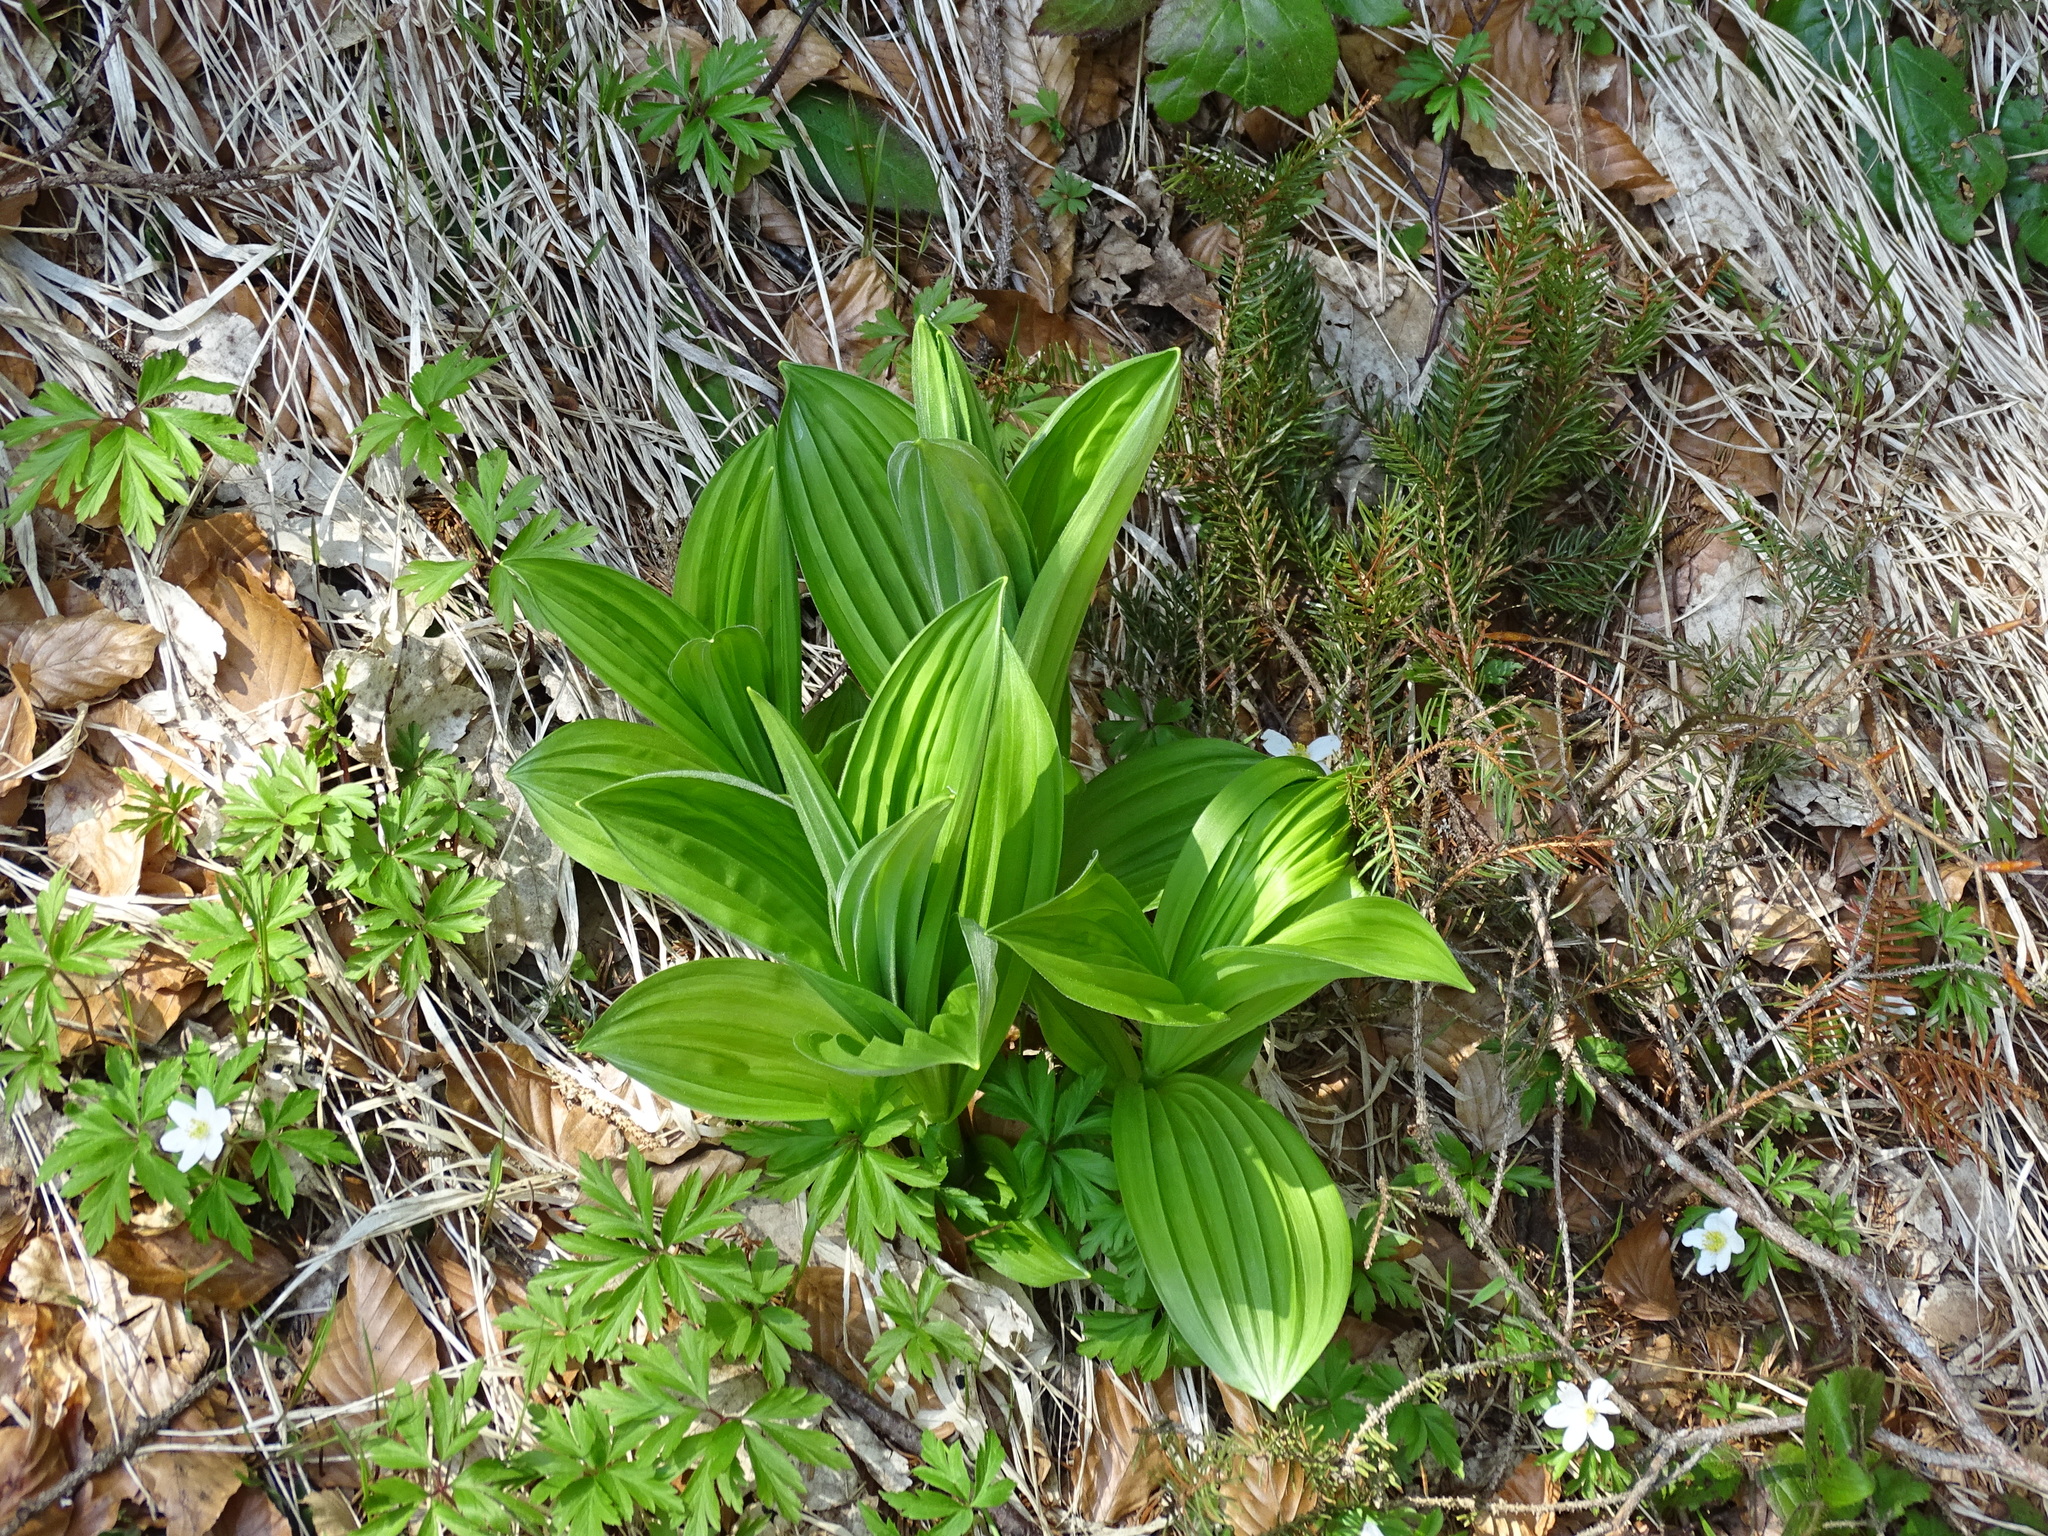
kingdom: Plantae
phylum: Tracheophyta
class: Liliopsida
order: Liliales
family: Melanthiaceae
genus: Veratrum
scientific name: Veratrum album
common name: White veratrum
